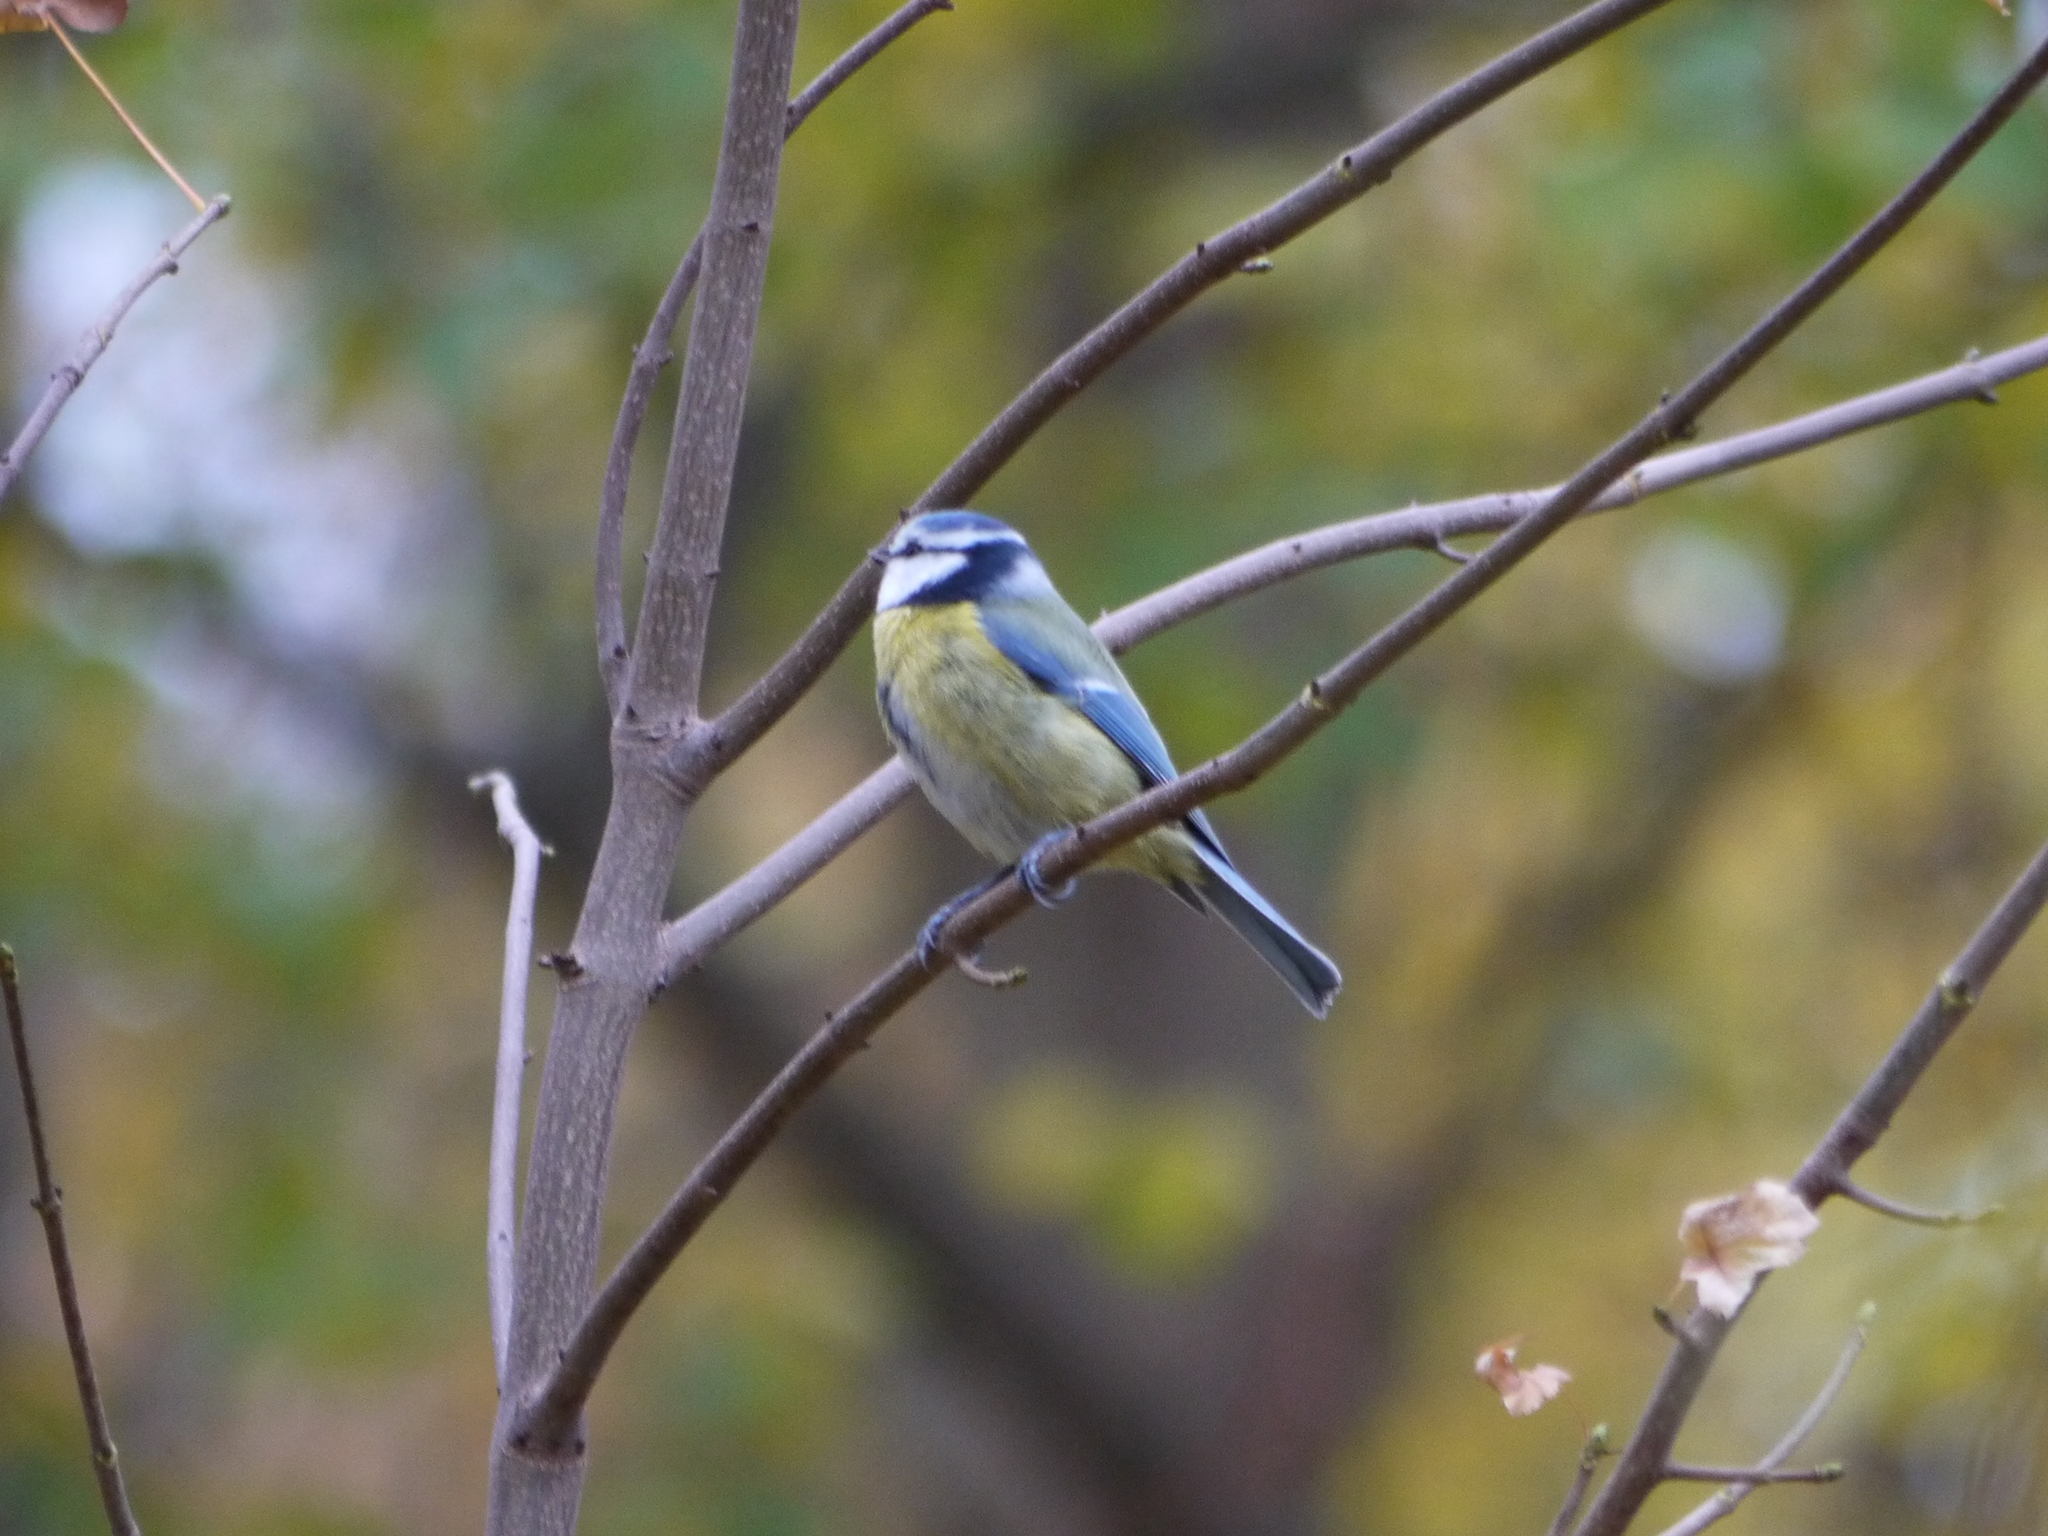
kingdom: Animalia
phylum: Chordata
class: Aves
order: Passeriformes
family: Paridae
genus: Cyanistes
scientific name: Cyanistes caeruleus
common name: Eurasian blue tit
